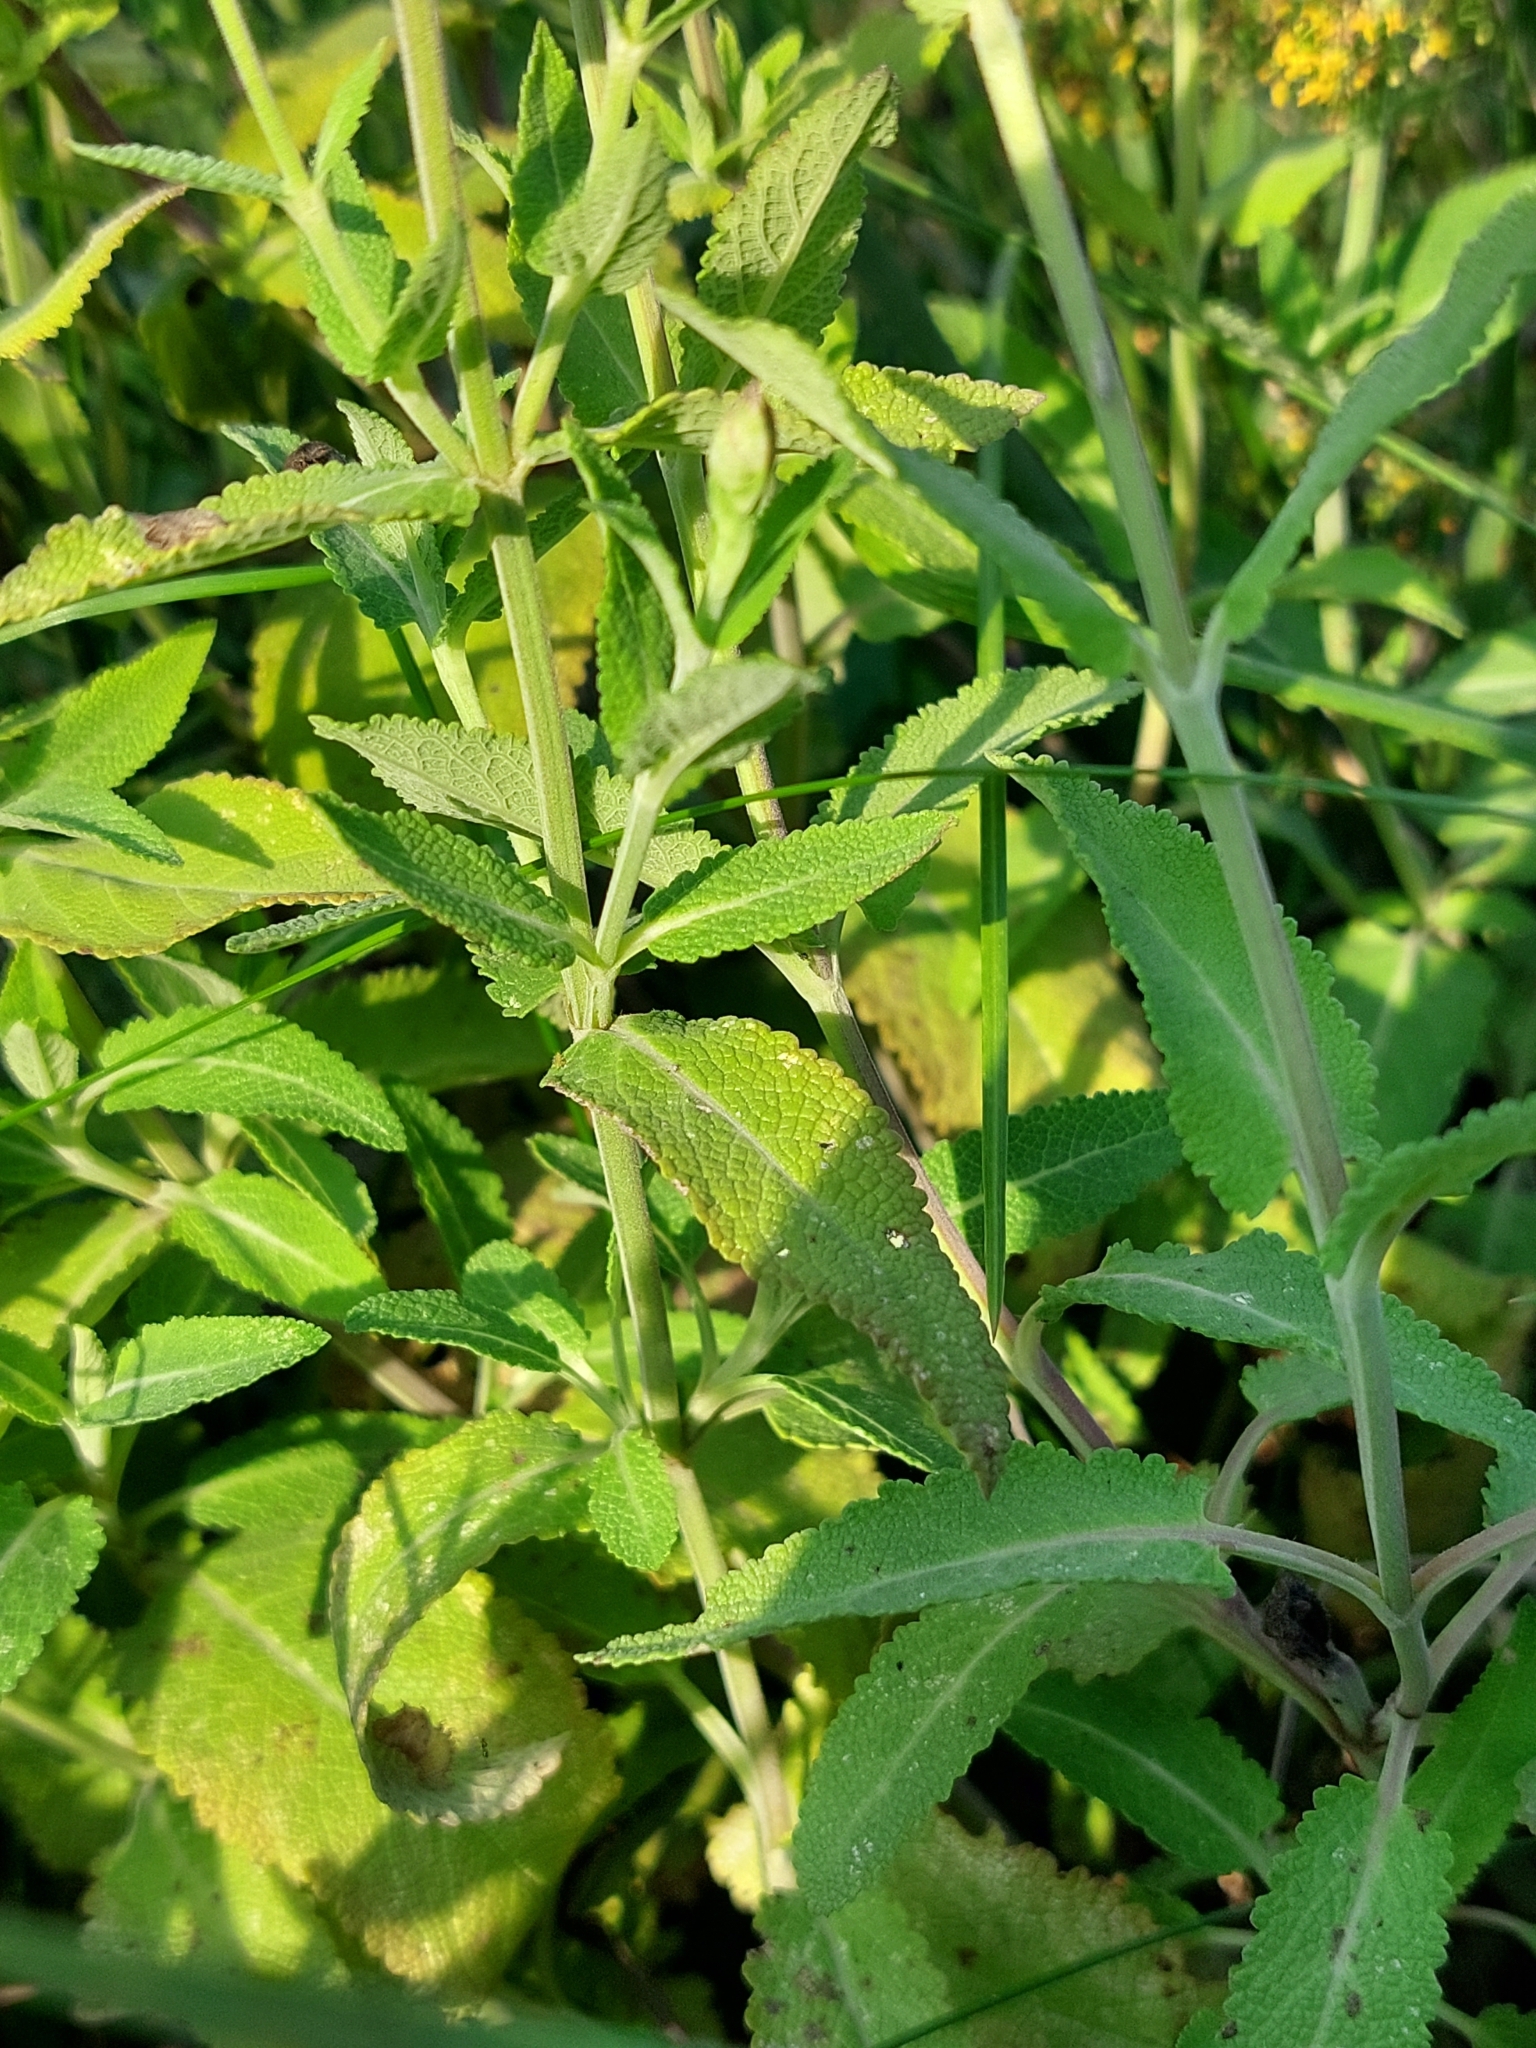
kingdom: Plantae
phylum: Tracheophyta
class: Magnoliopsida
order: Lamiales
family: Lamiaceae
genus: Salvia
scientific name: Salvia nemorosa
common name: Balkan clary
